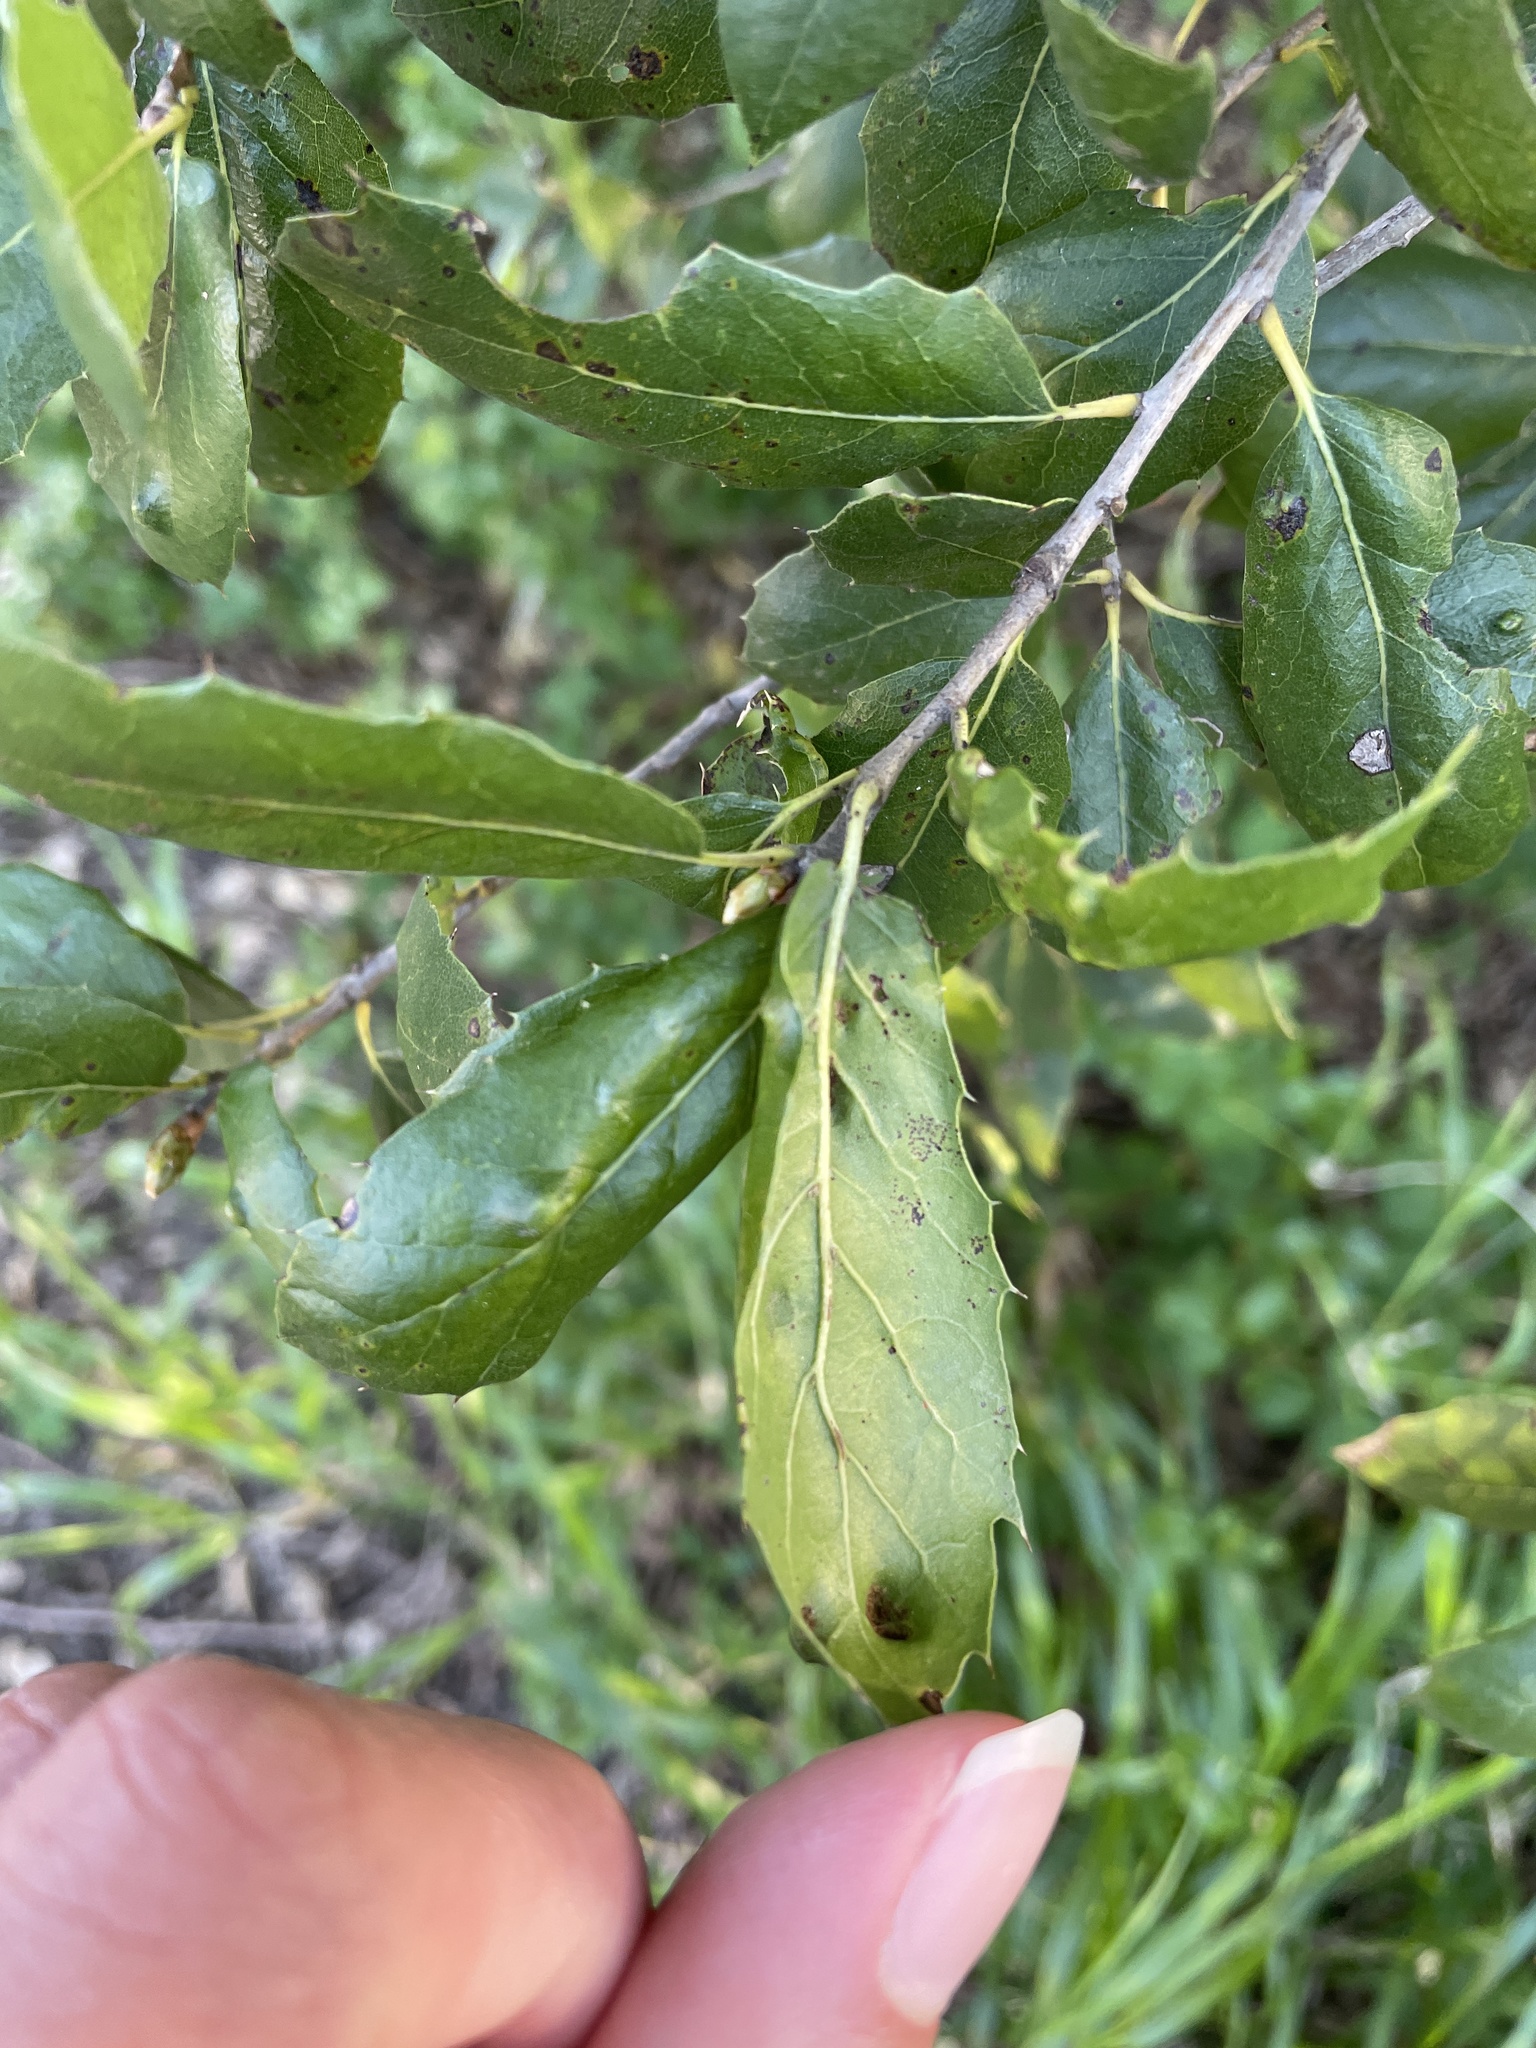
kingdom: Animalia
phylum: Arthropoda
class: Arachnida
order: Trombidiformes
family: Eriophyidae
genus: Aceria
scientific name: Aceria
